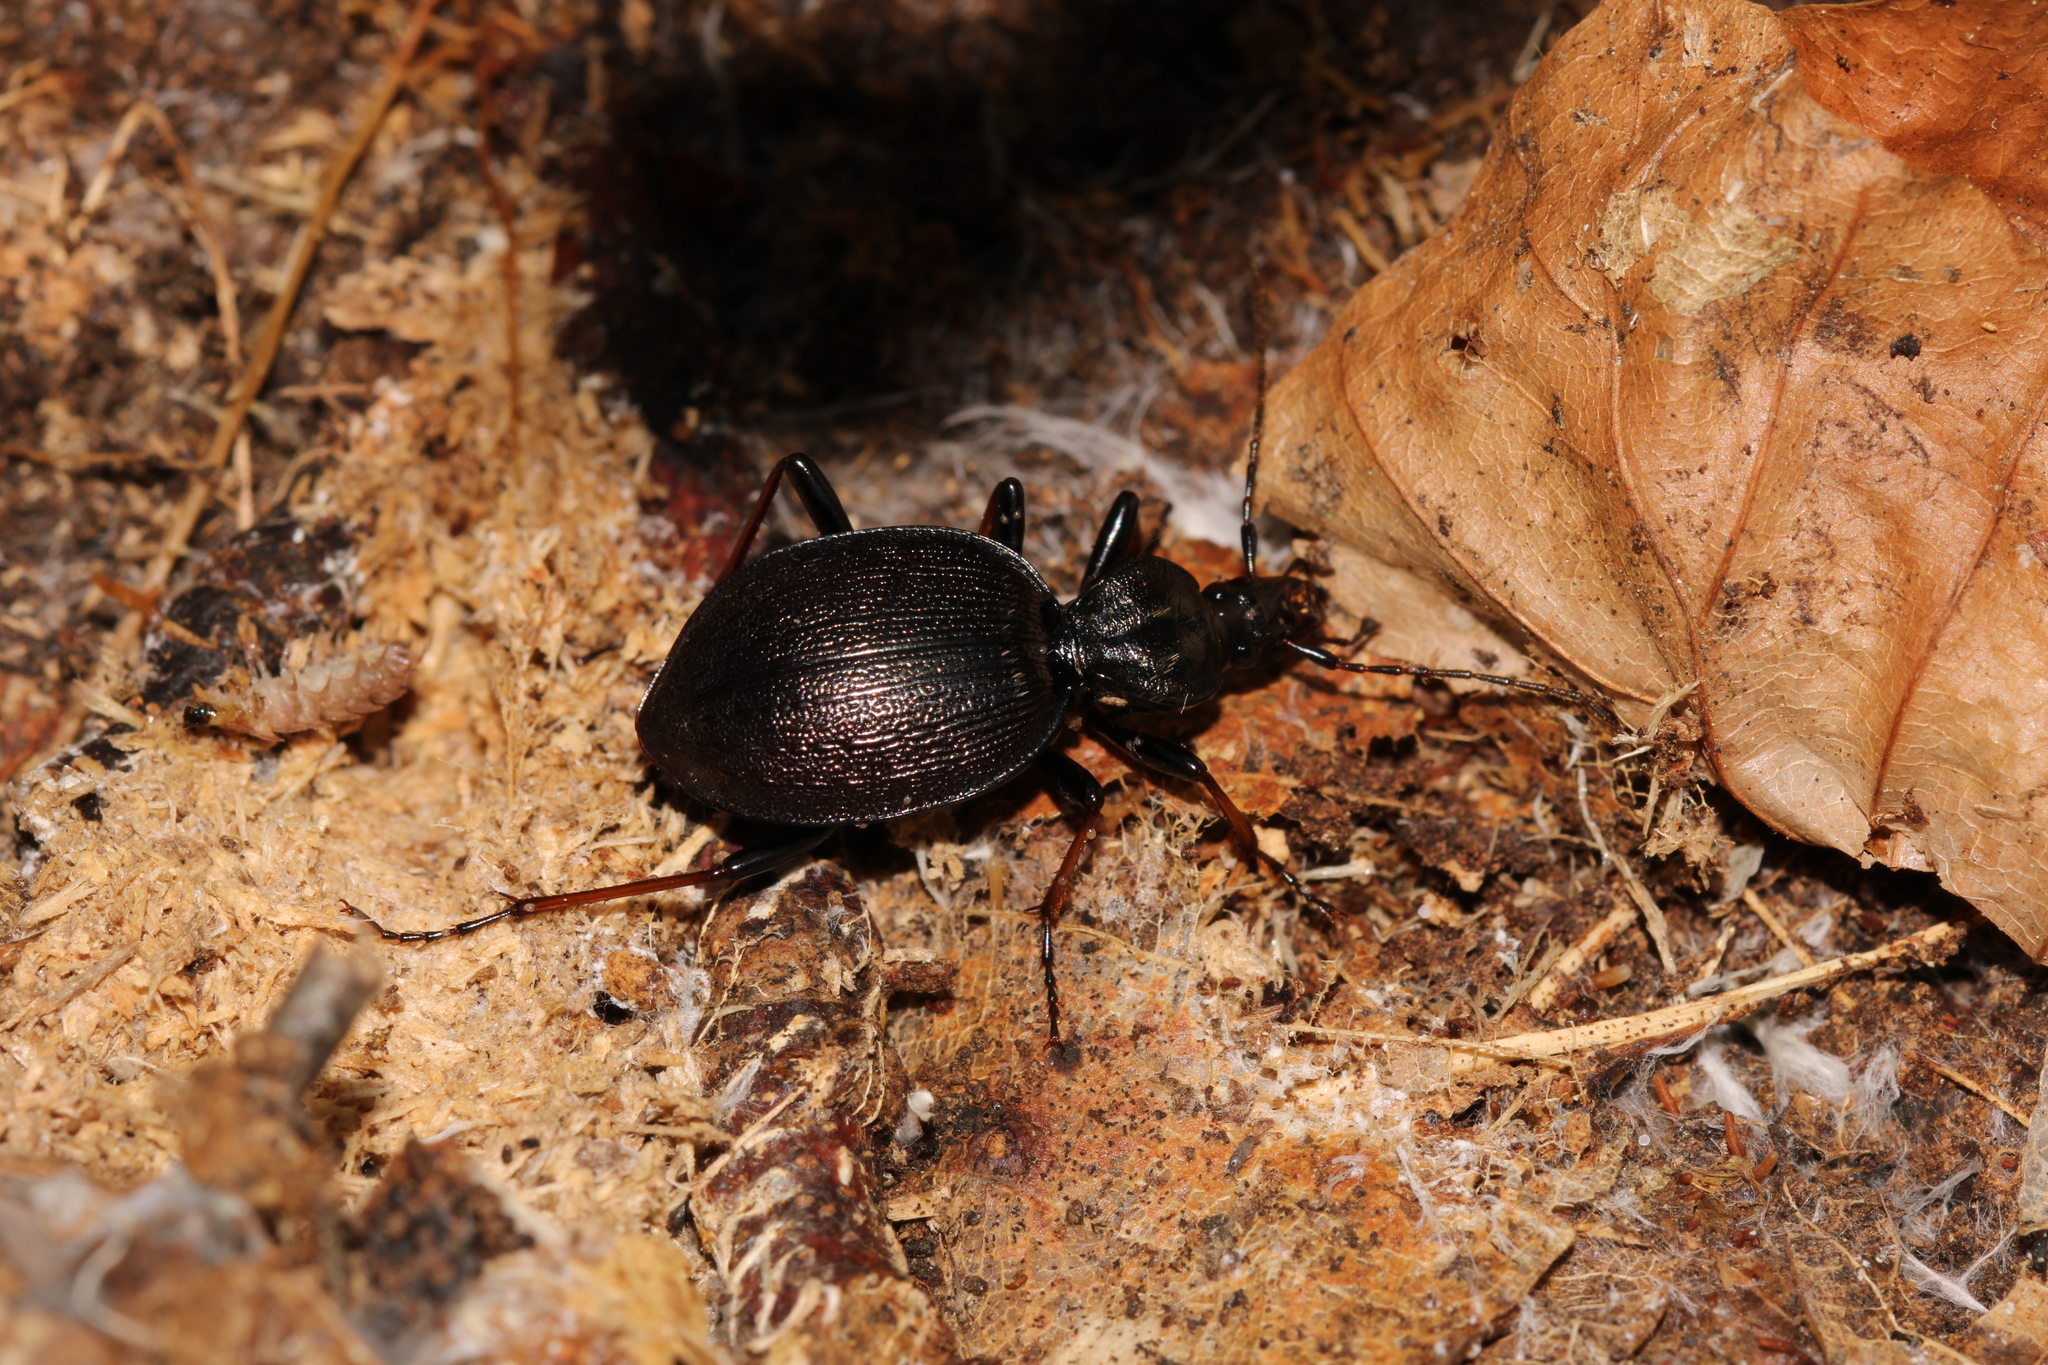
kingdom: Animalia
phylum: Arthropoda
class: Insecta
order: Coleoptera
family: Carabidae
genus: Cychrus
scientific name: Cychrus attenuatus
